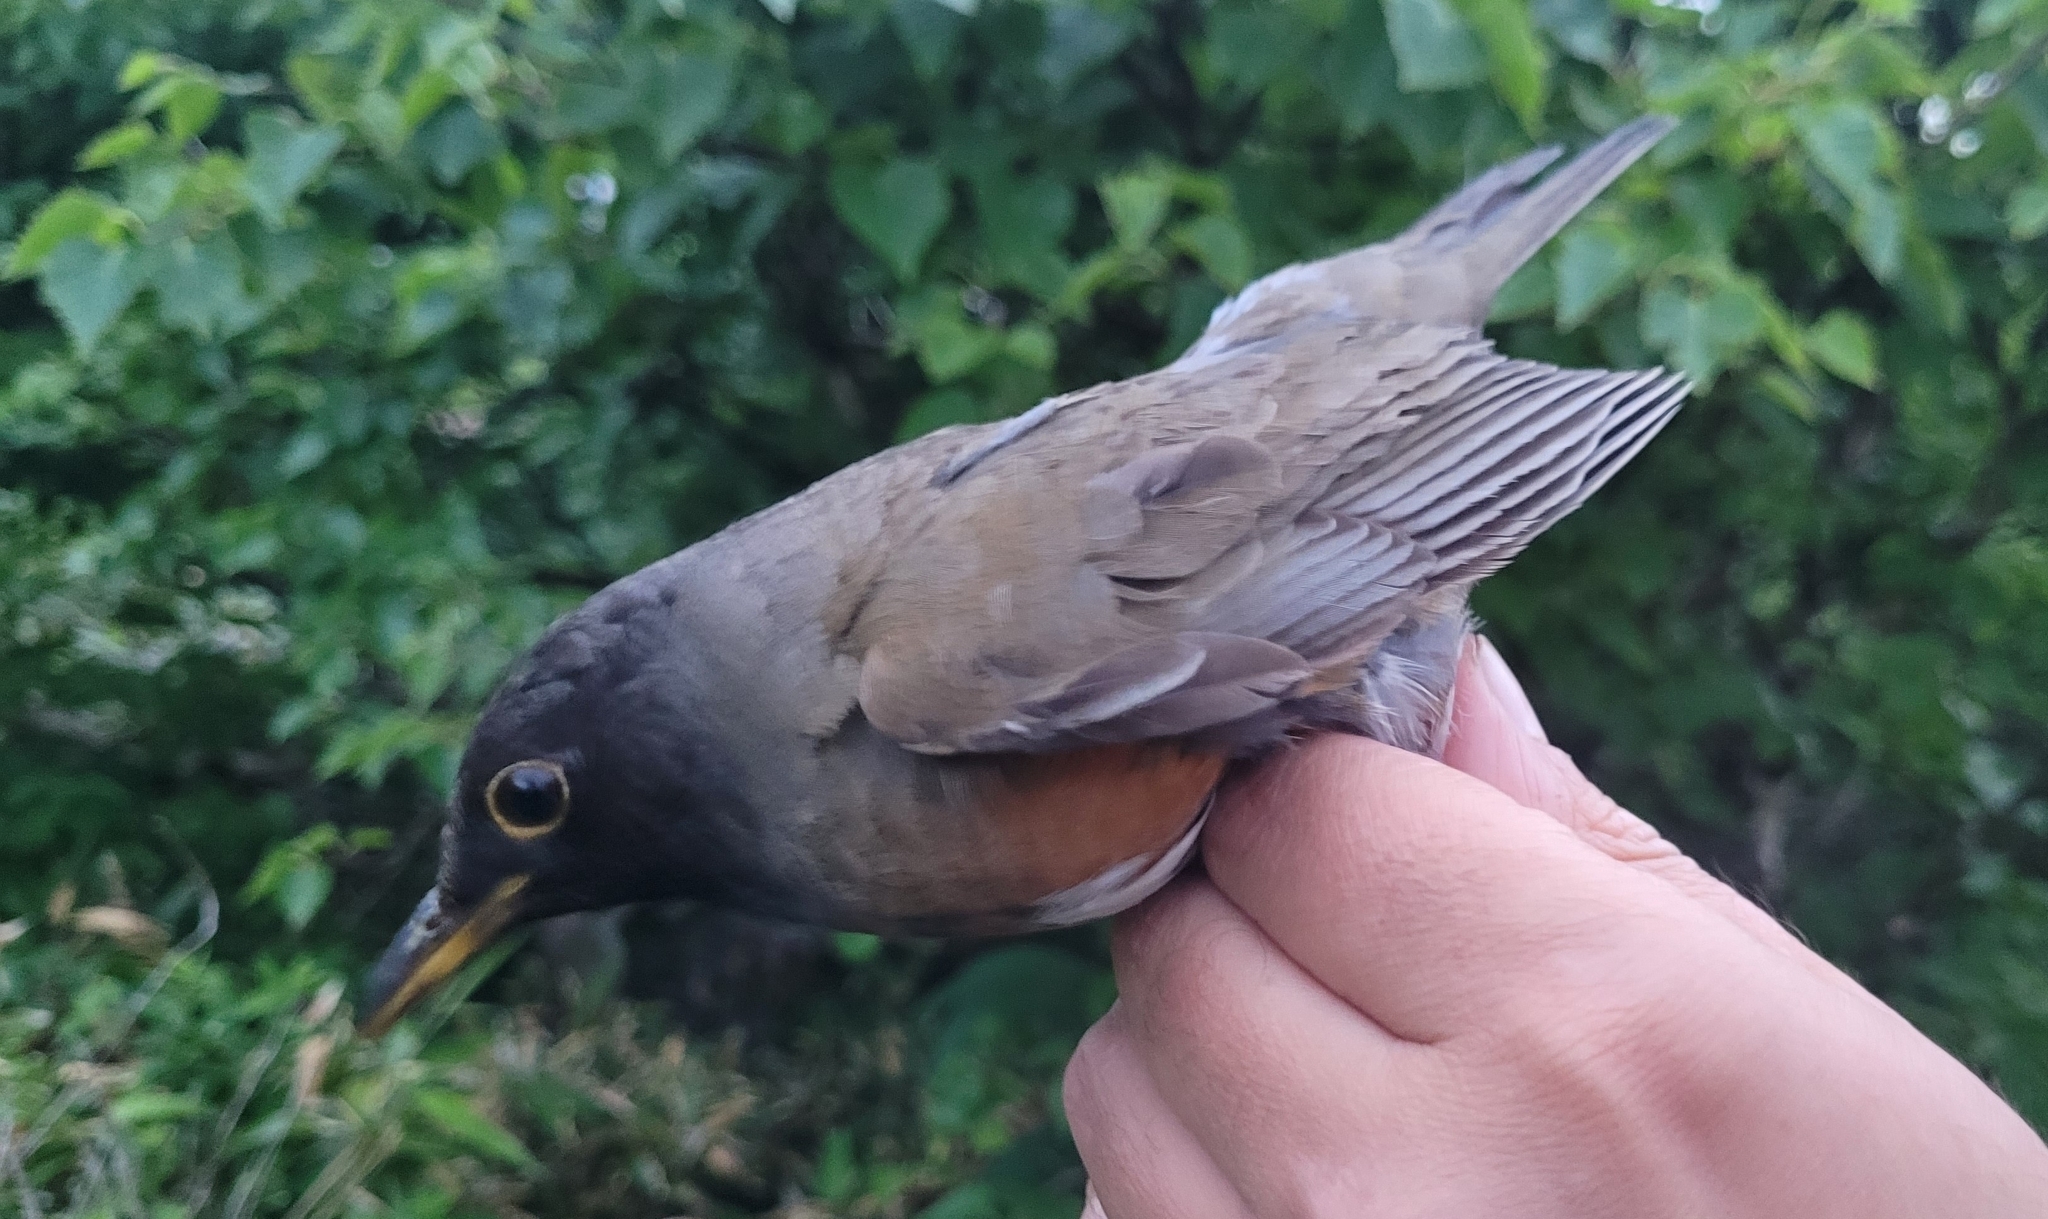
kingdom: Animalia
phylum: Chordata
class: Aves
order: Passeriformes
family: Turdidae
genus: Turdus
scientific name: Turdus chrysolaus
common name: Brown-headed thrush
